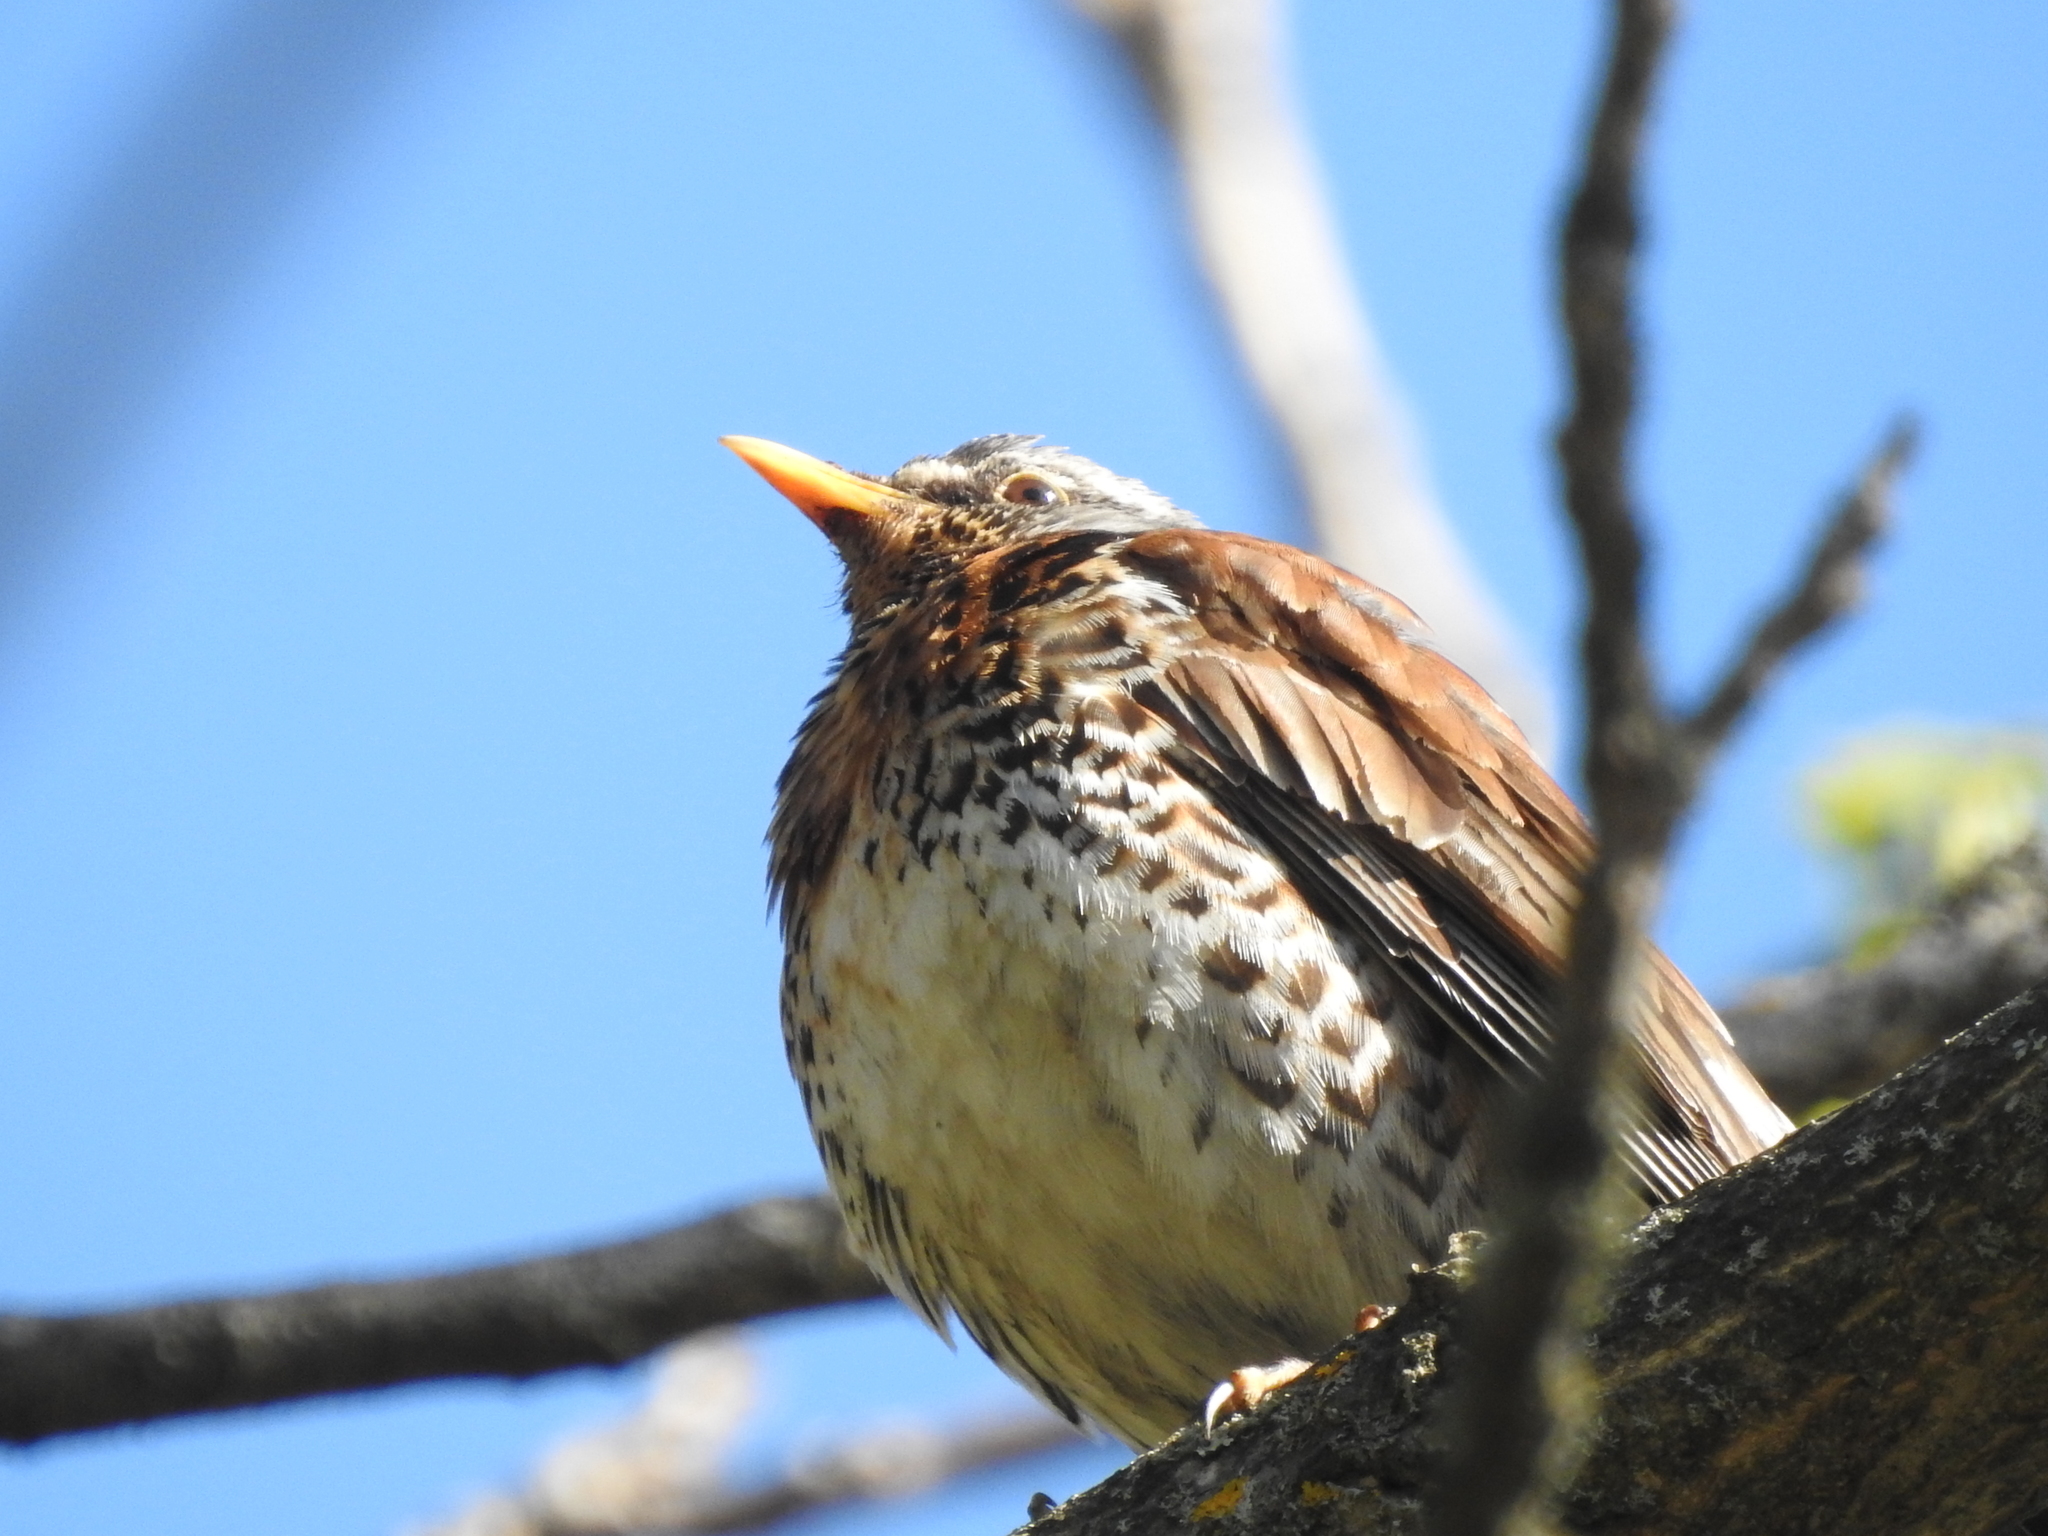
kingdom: Animalia
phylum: Chordata
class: Aves
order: Passeriformes
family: Turdidae
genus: Turdus
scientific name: Turdus pilaris
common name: Fieldfare
